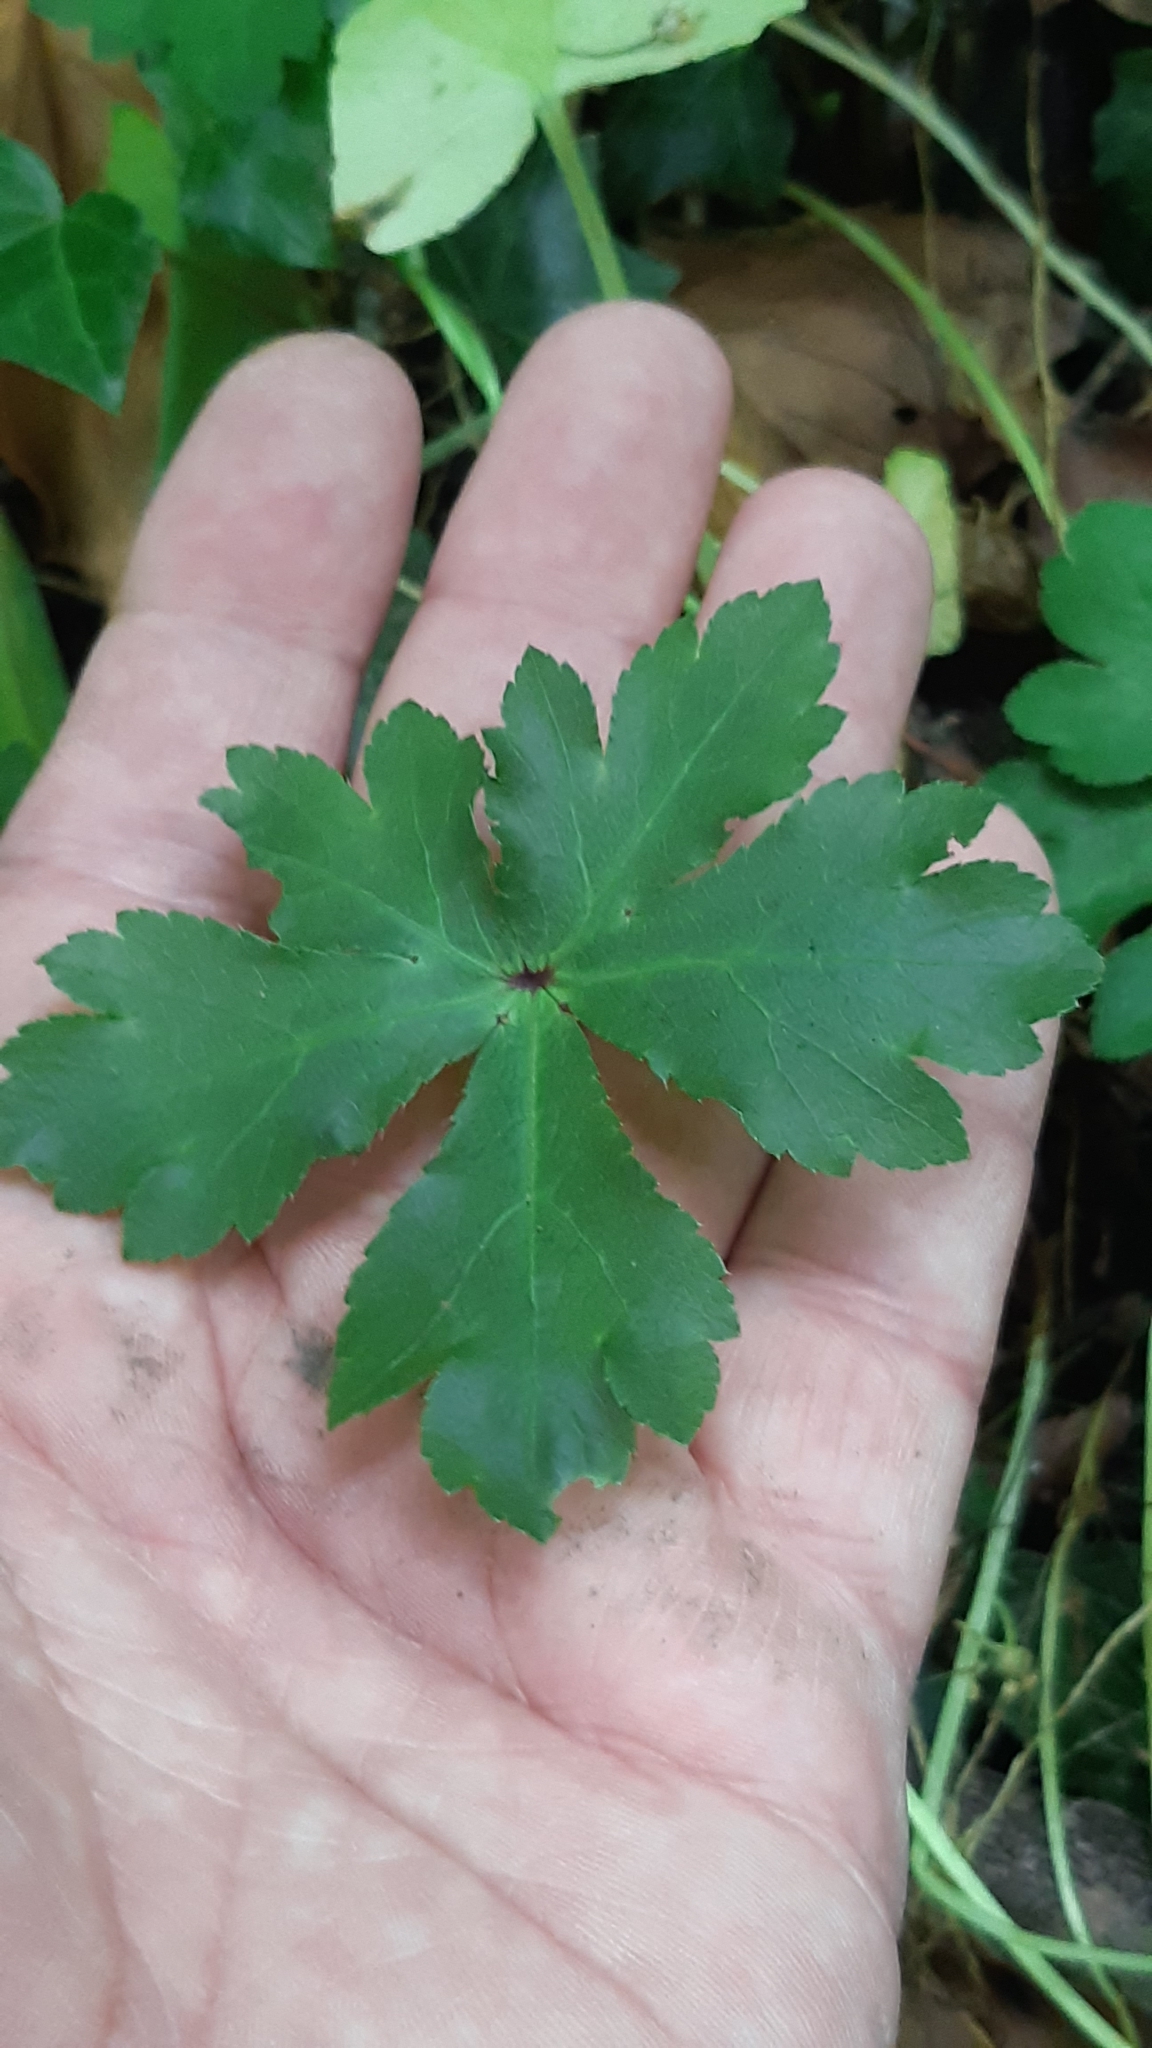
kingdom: Plantae
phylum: Tracheophyta
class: Magnoliopsida
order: Apiales
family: Apiaceae
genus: Sanicula
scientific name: Sanicula europaea
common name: Sanicle
